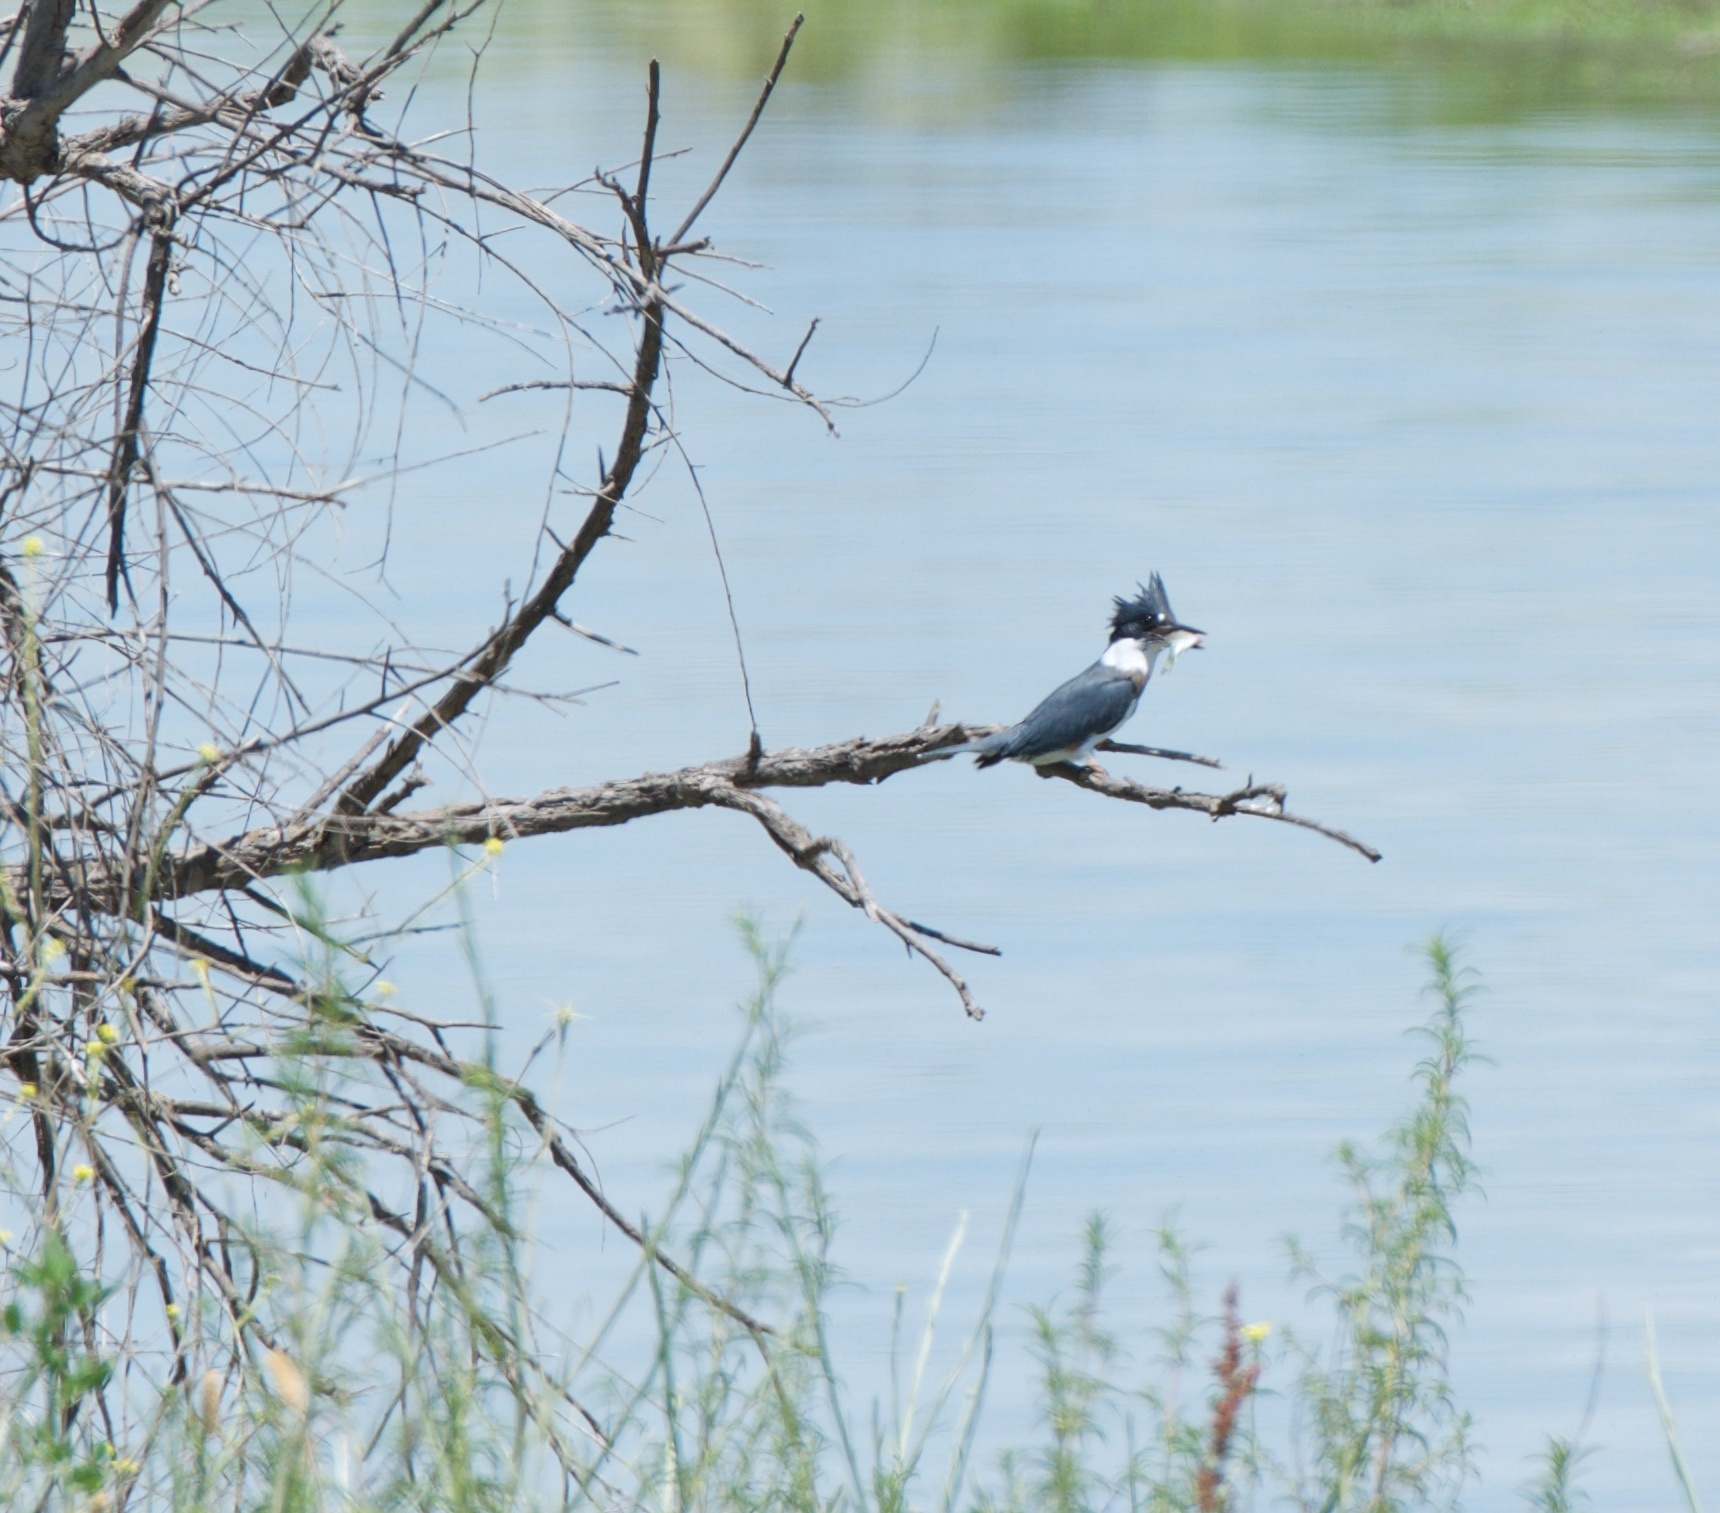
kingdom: Animalia
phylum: Chordata
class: Aves
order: Coraciiformes
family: Alcedinidae
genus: Megaceryle
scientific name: Megaceryle alcyon
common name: Belted kingfisher
